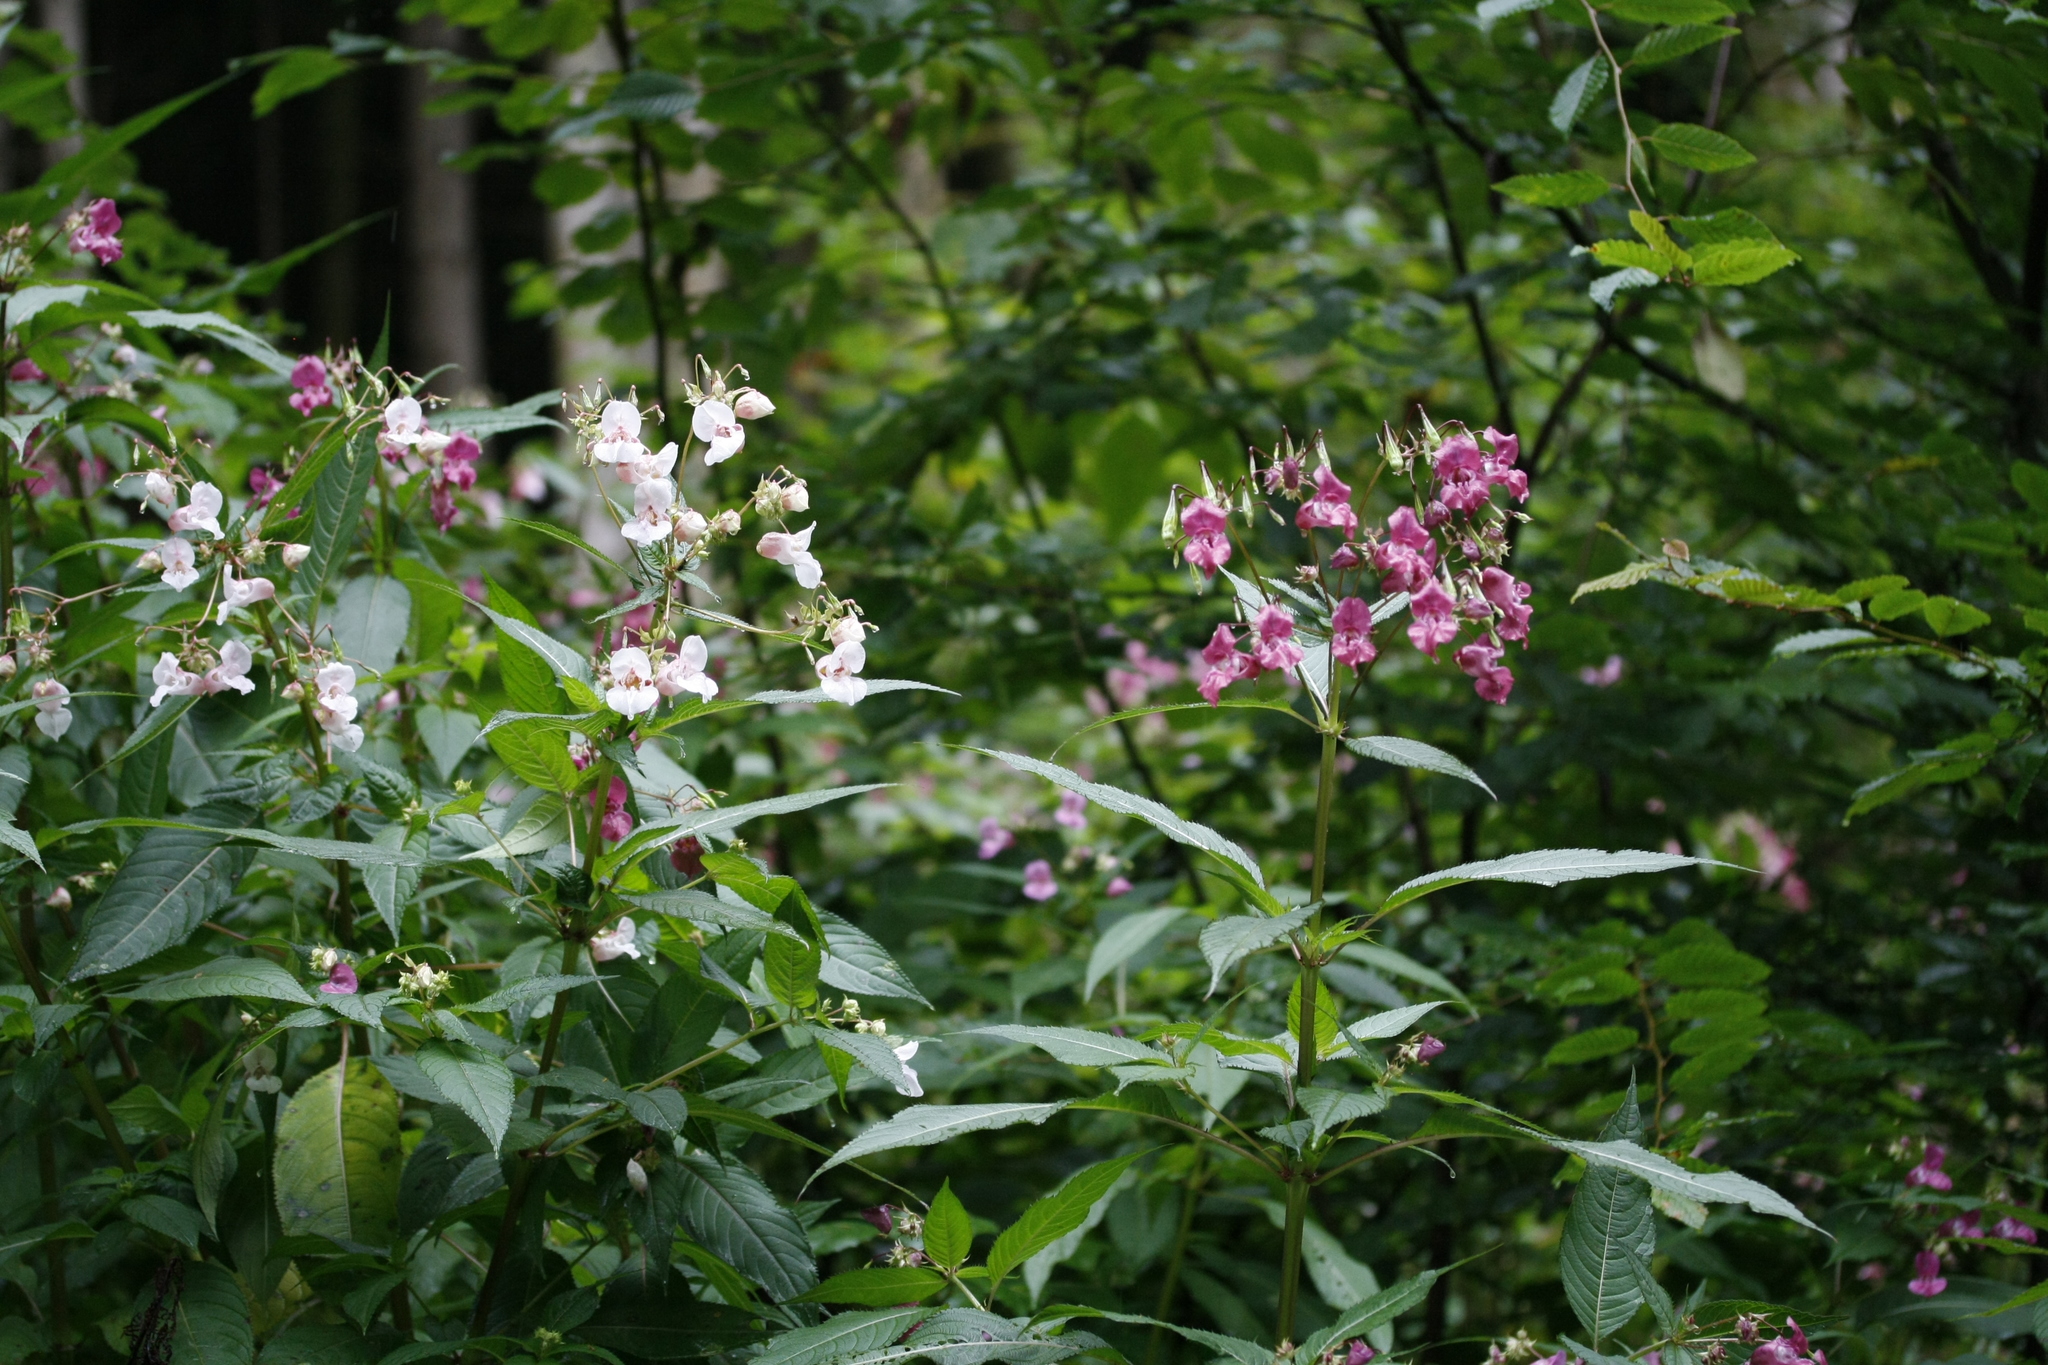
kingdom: Plantae
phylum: Tracheophyta
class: Magnoliopsida
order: Ericales
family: Balsaminaceae
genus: Impatiens
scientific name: Impatiens glandulifera
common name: Himalayan balsam
